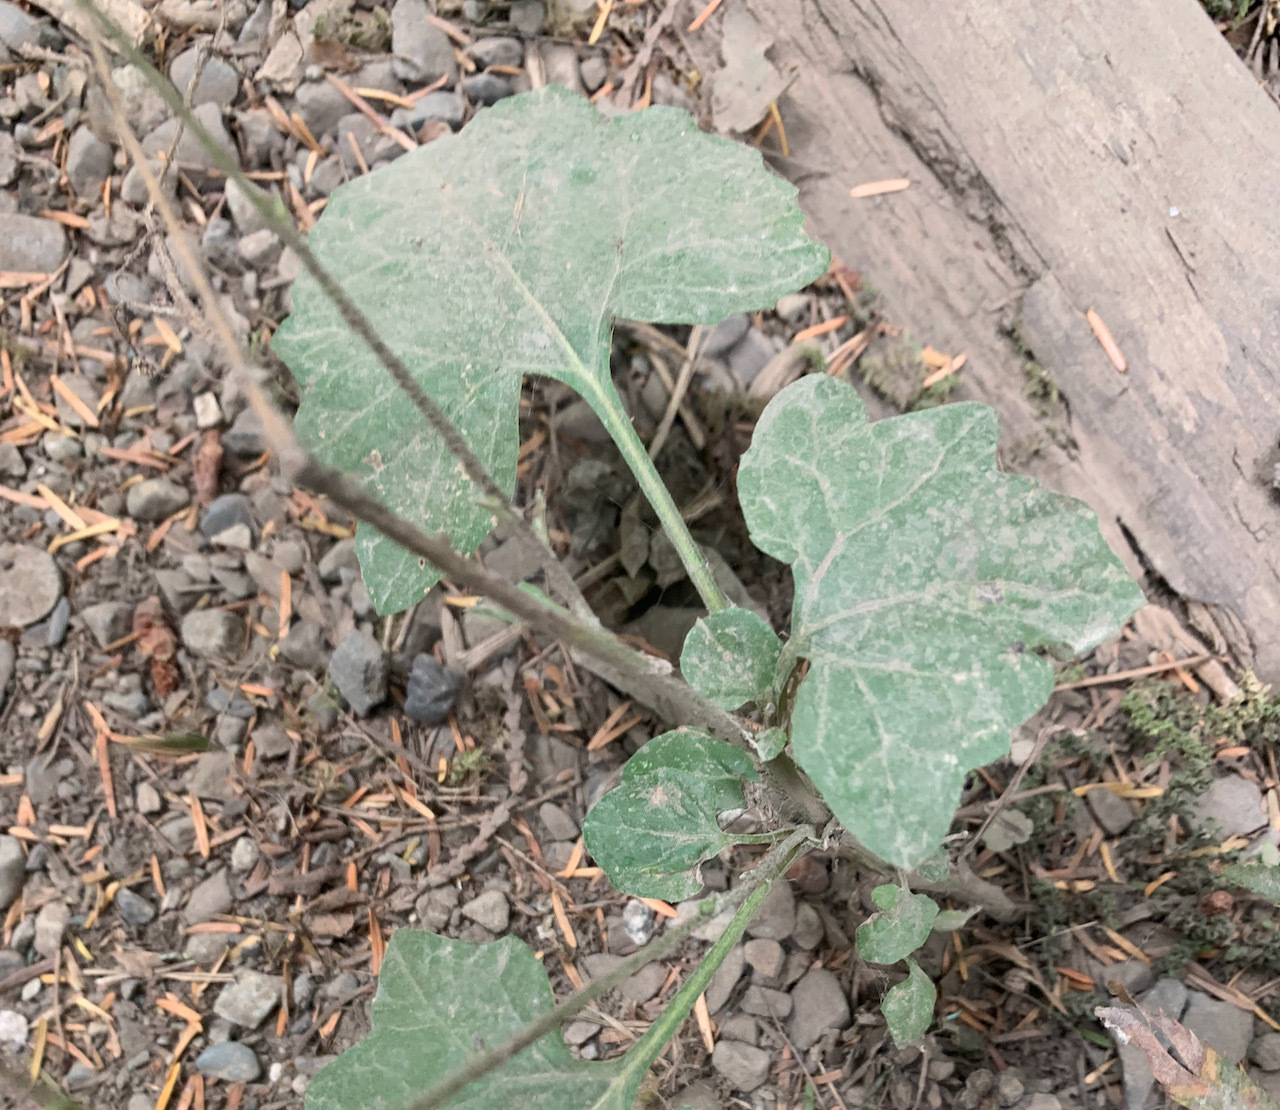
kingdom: Plantae
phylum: Tracheophyta
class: Magnoliopsida
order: Asterales
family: Asteraceae
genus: Adenocaulon
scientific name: Adenocaulon bicolor
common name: Trailplant
